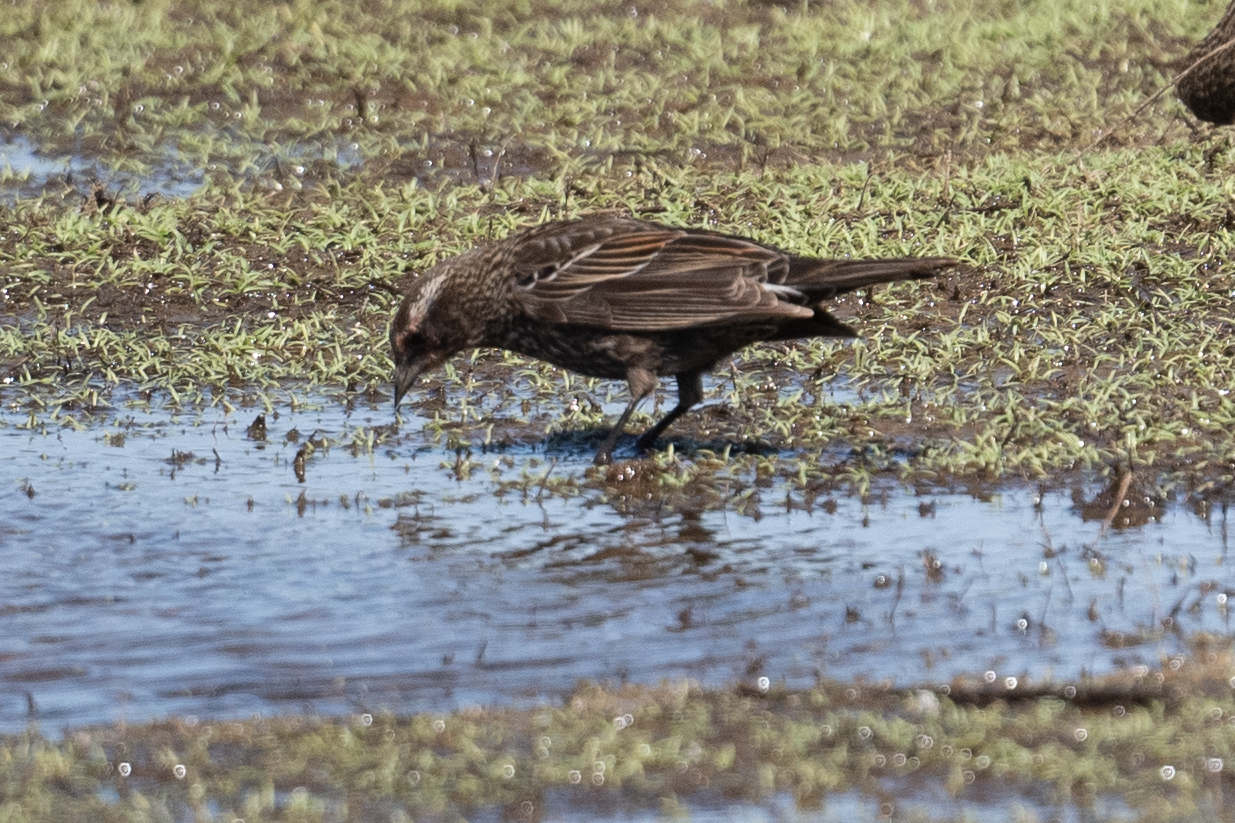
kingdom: Animalia
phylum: Chordata
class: Aves
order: Passeriformes
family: Icteridae
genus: Agelaius
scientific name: Agelaius phoeniceus
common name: Red-winged blackbird
